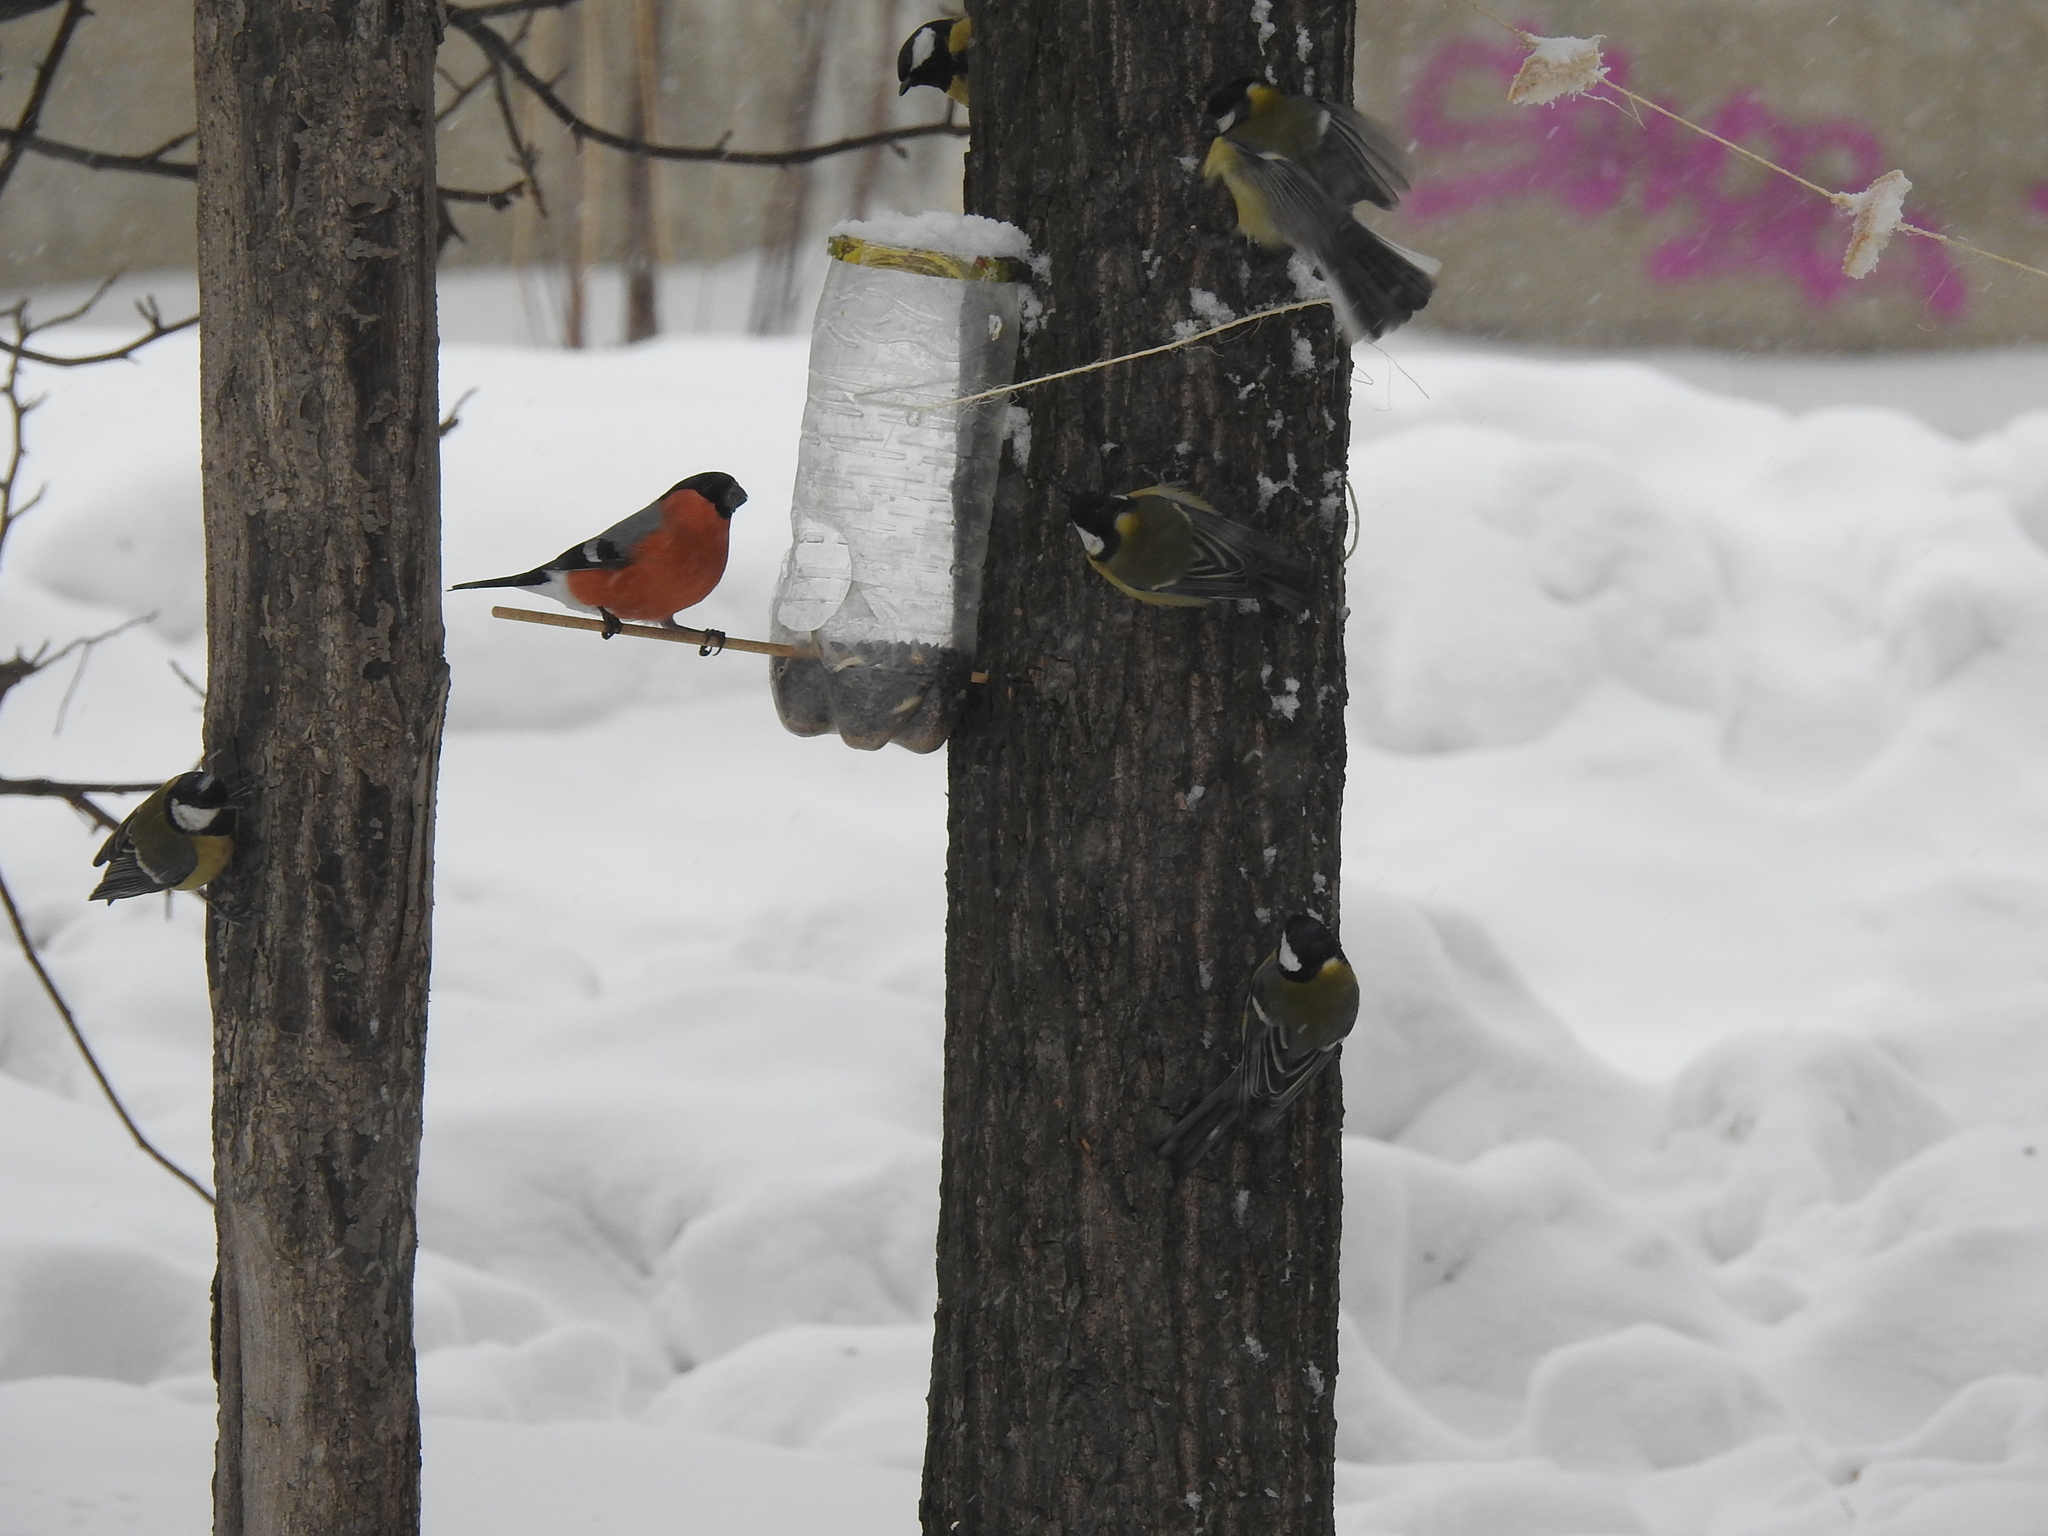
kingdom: Animalia
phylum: Chordata
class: Aves
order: Passeriformes
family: Fringillidae
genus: Pyrrhula
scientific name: Pyrrhula pyrrhula
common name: Eurasian bullfinch
